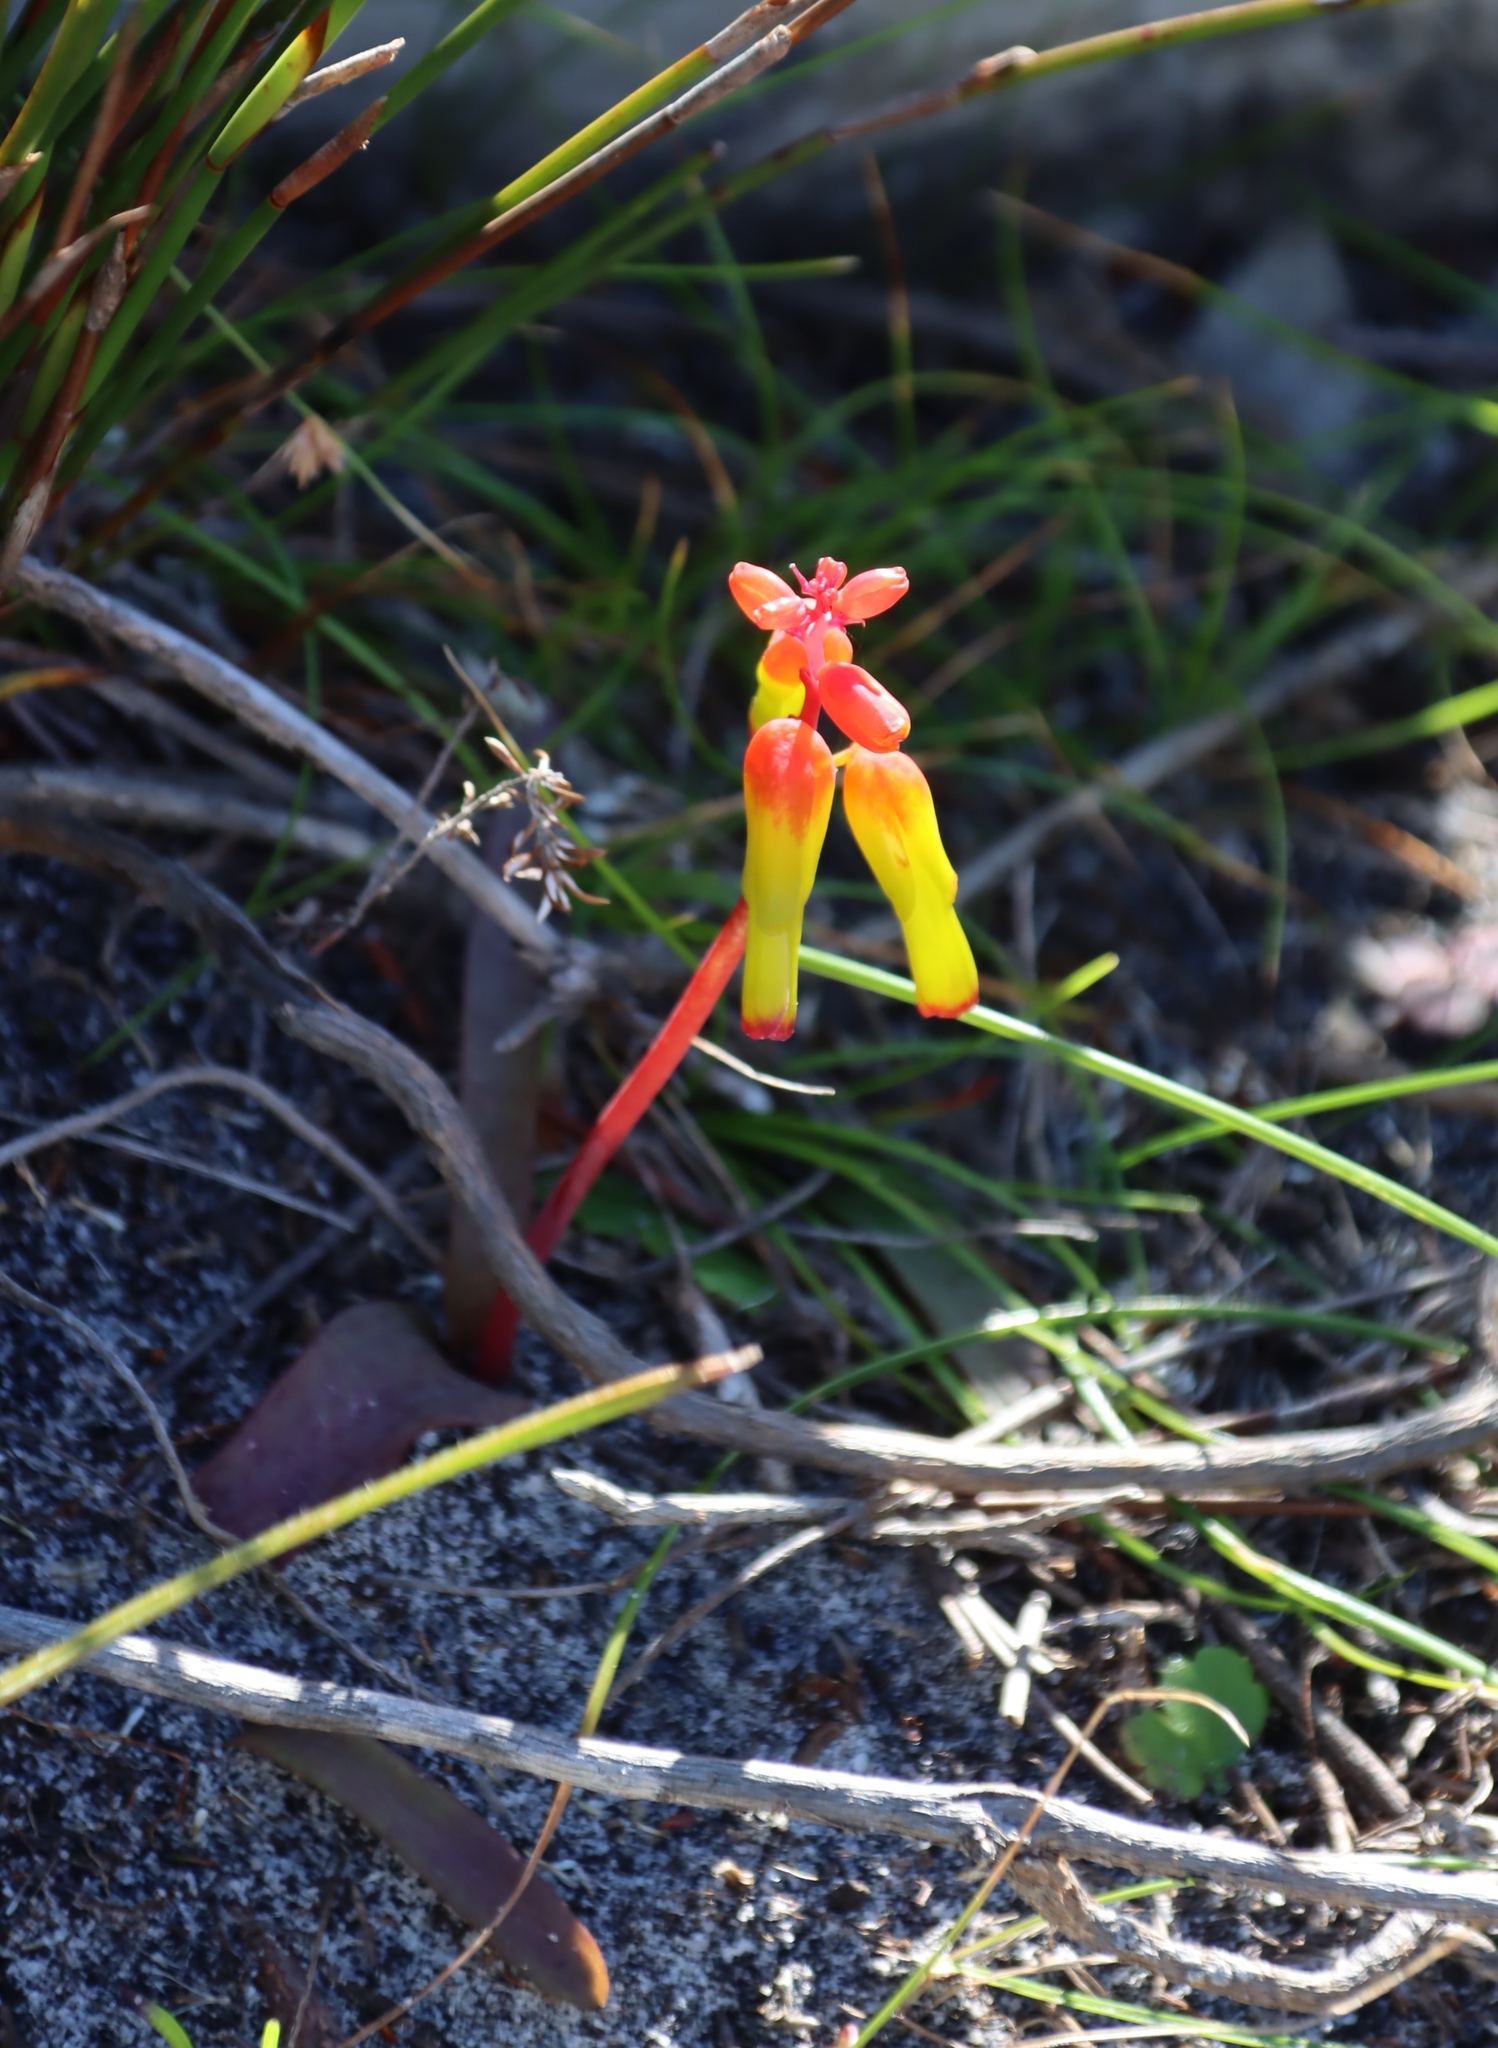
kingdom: Plantae
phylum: Tracheophyta
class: Liliopsida
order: Asparagales
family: Asparagaceae
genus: Lachenalia
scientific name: Lachenalia luteola
